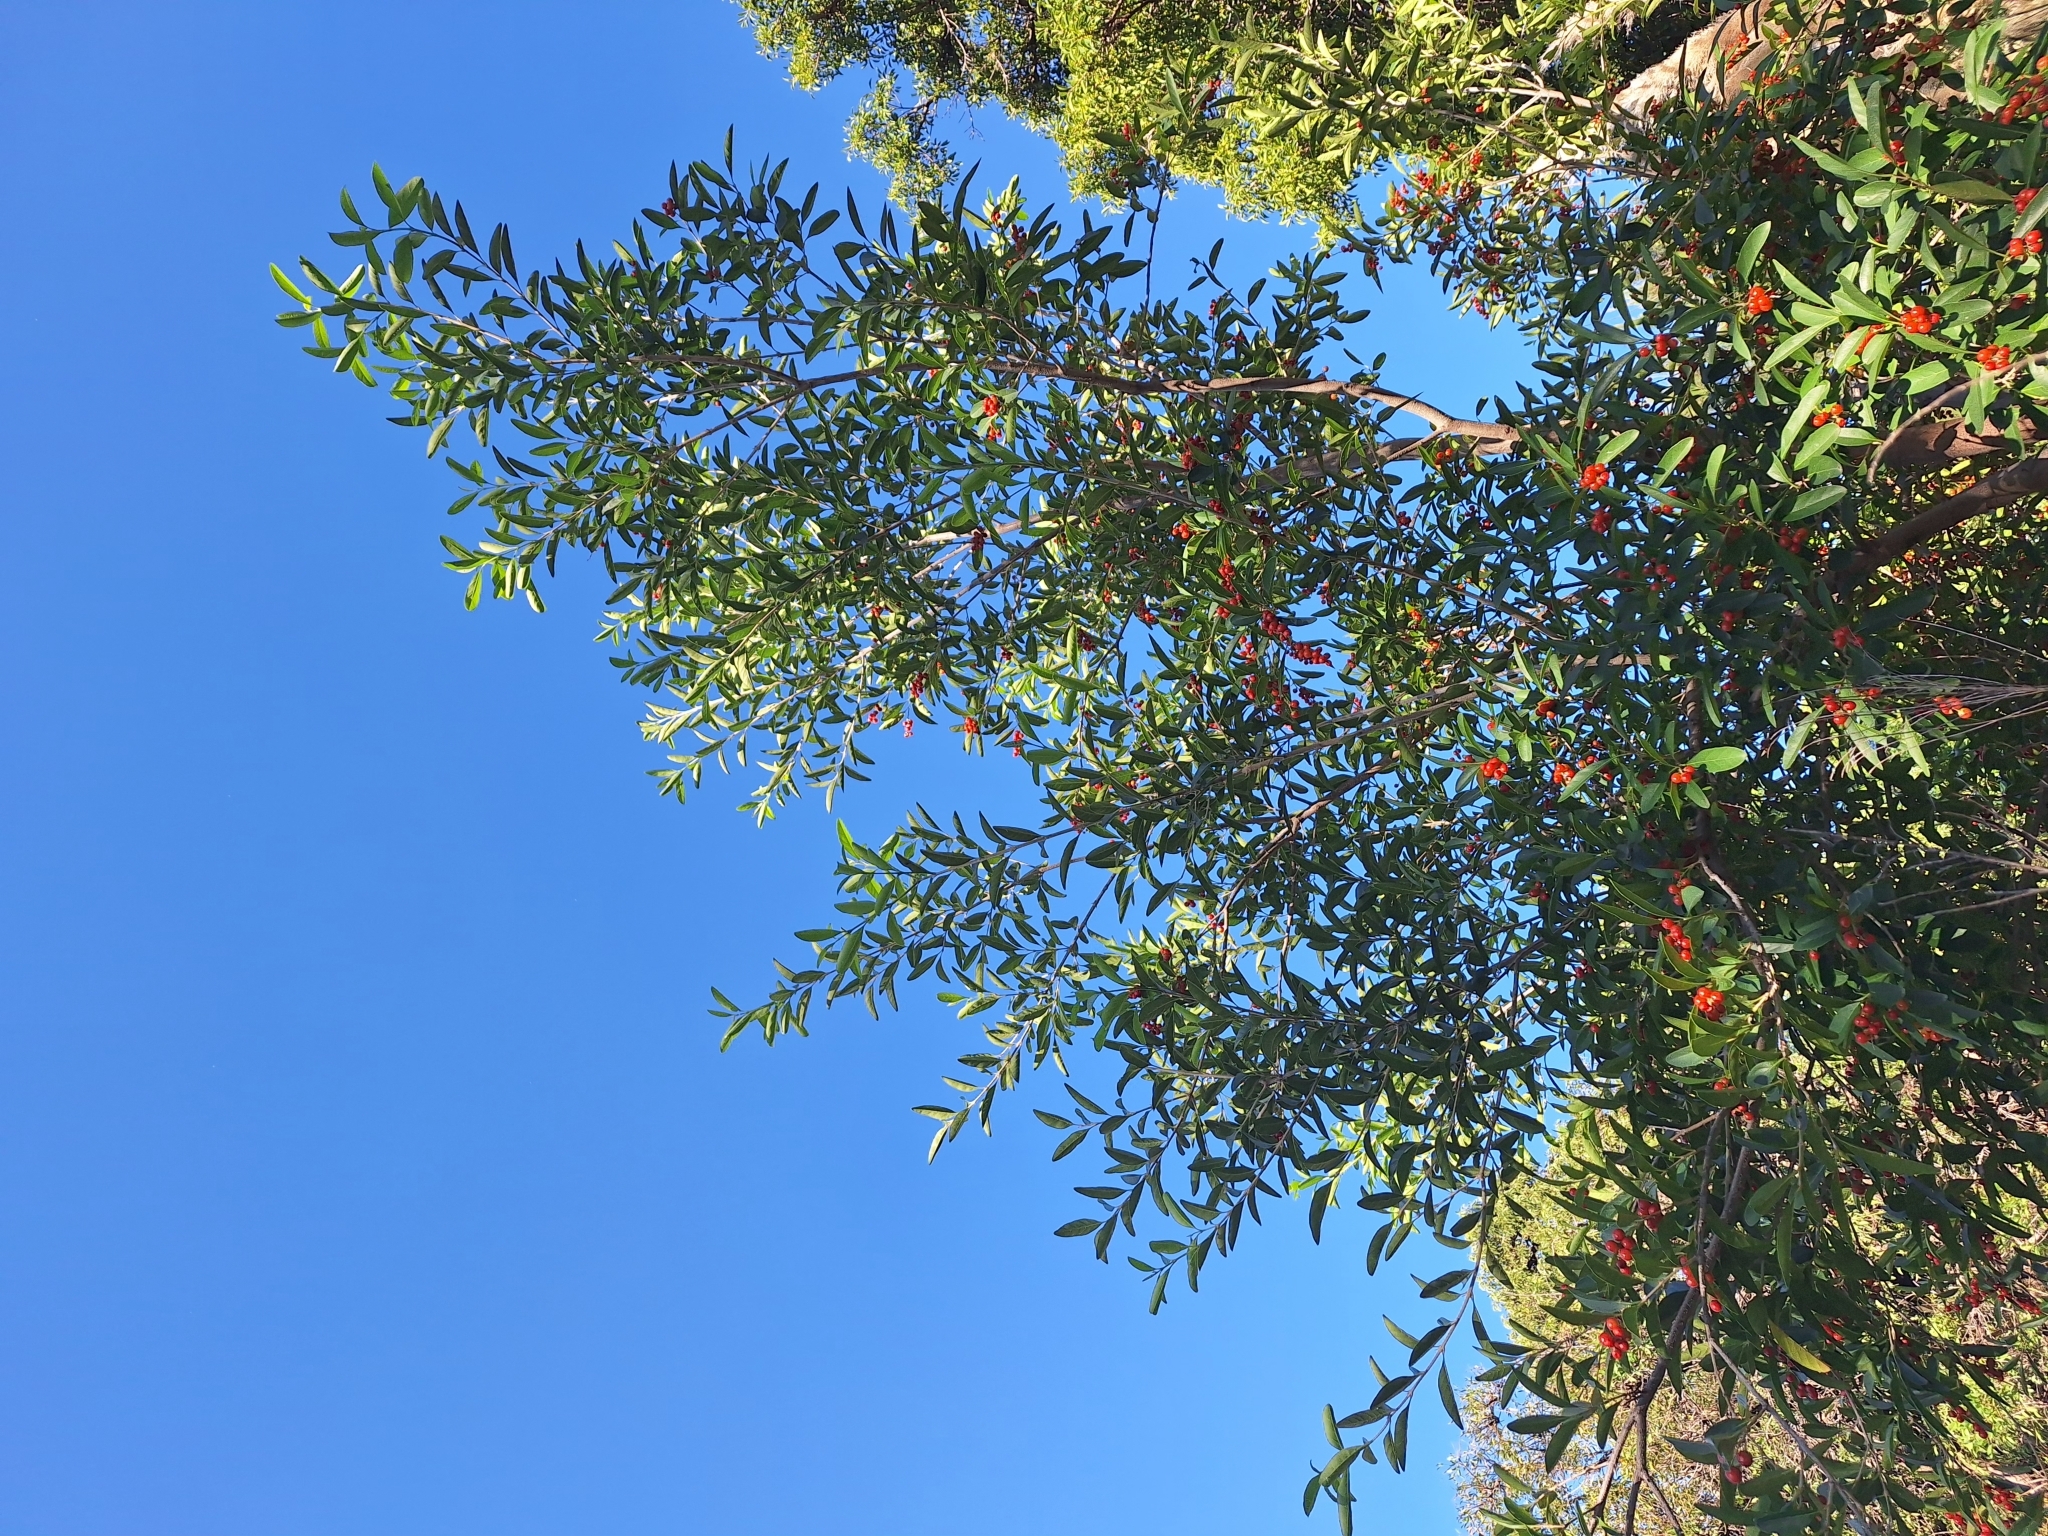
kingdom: Plantae
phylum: Tracheophyta
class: Magnoliopsida
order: Lamiales
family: Verbenaceae
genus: Citharexylum
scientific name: Citharexylum montevidense
